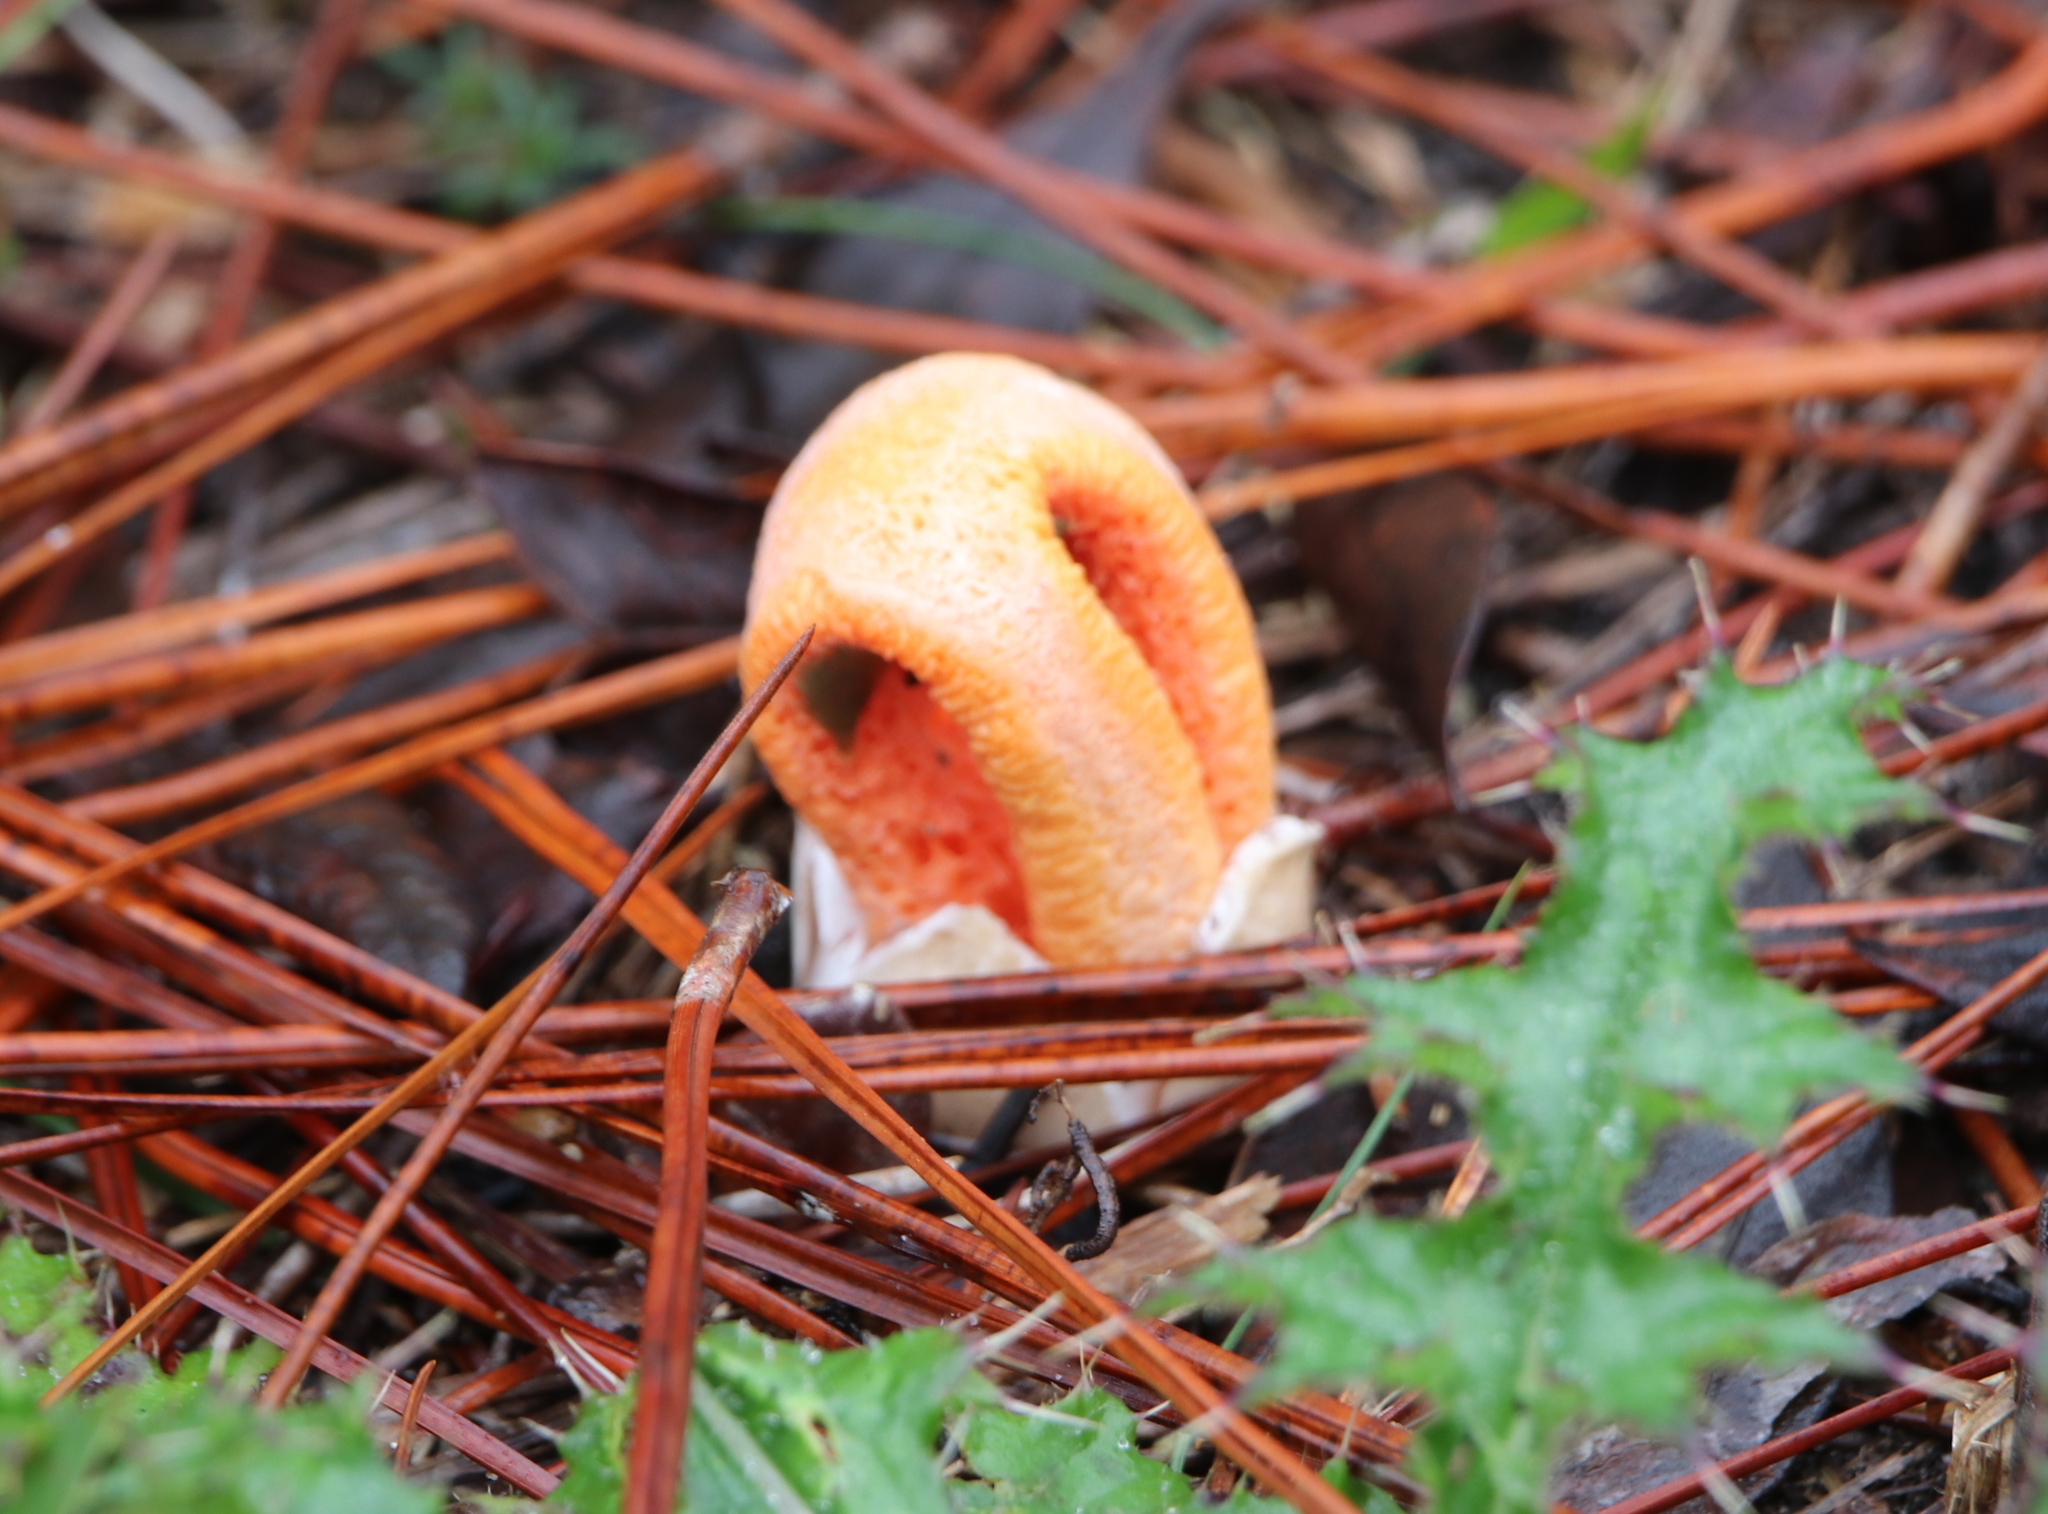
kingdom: Fungi
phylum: Basidiomycota
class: Agaricomycetes
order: Phallales
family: Phallaceae
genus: Clathrus
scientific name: Clathrus columnatus
